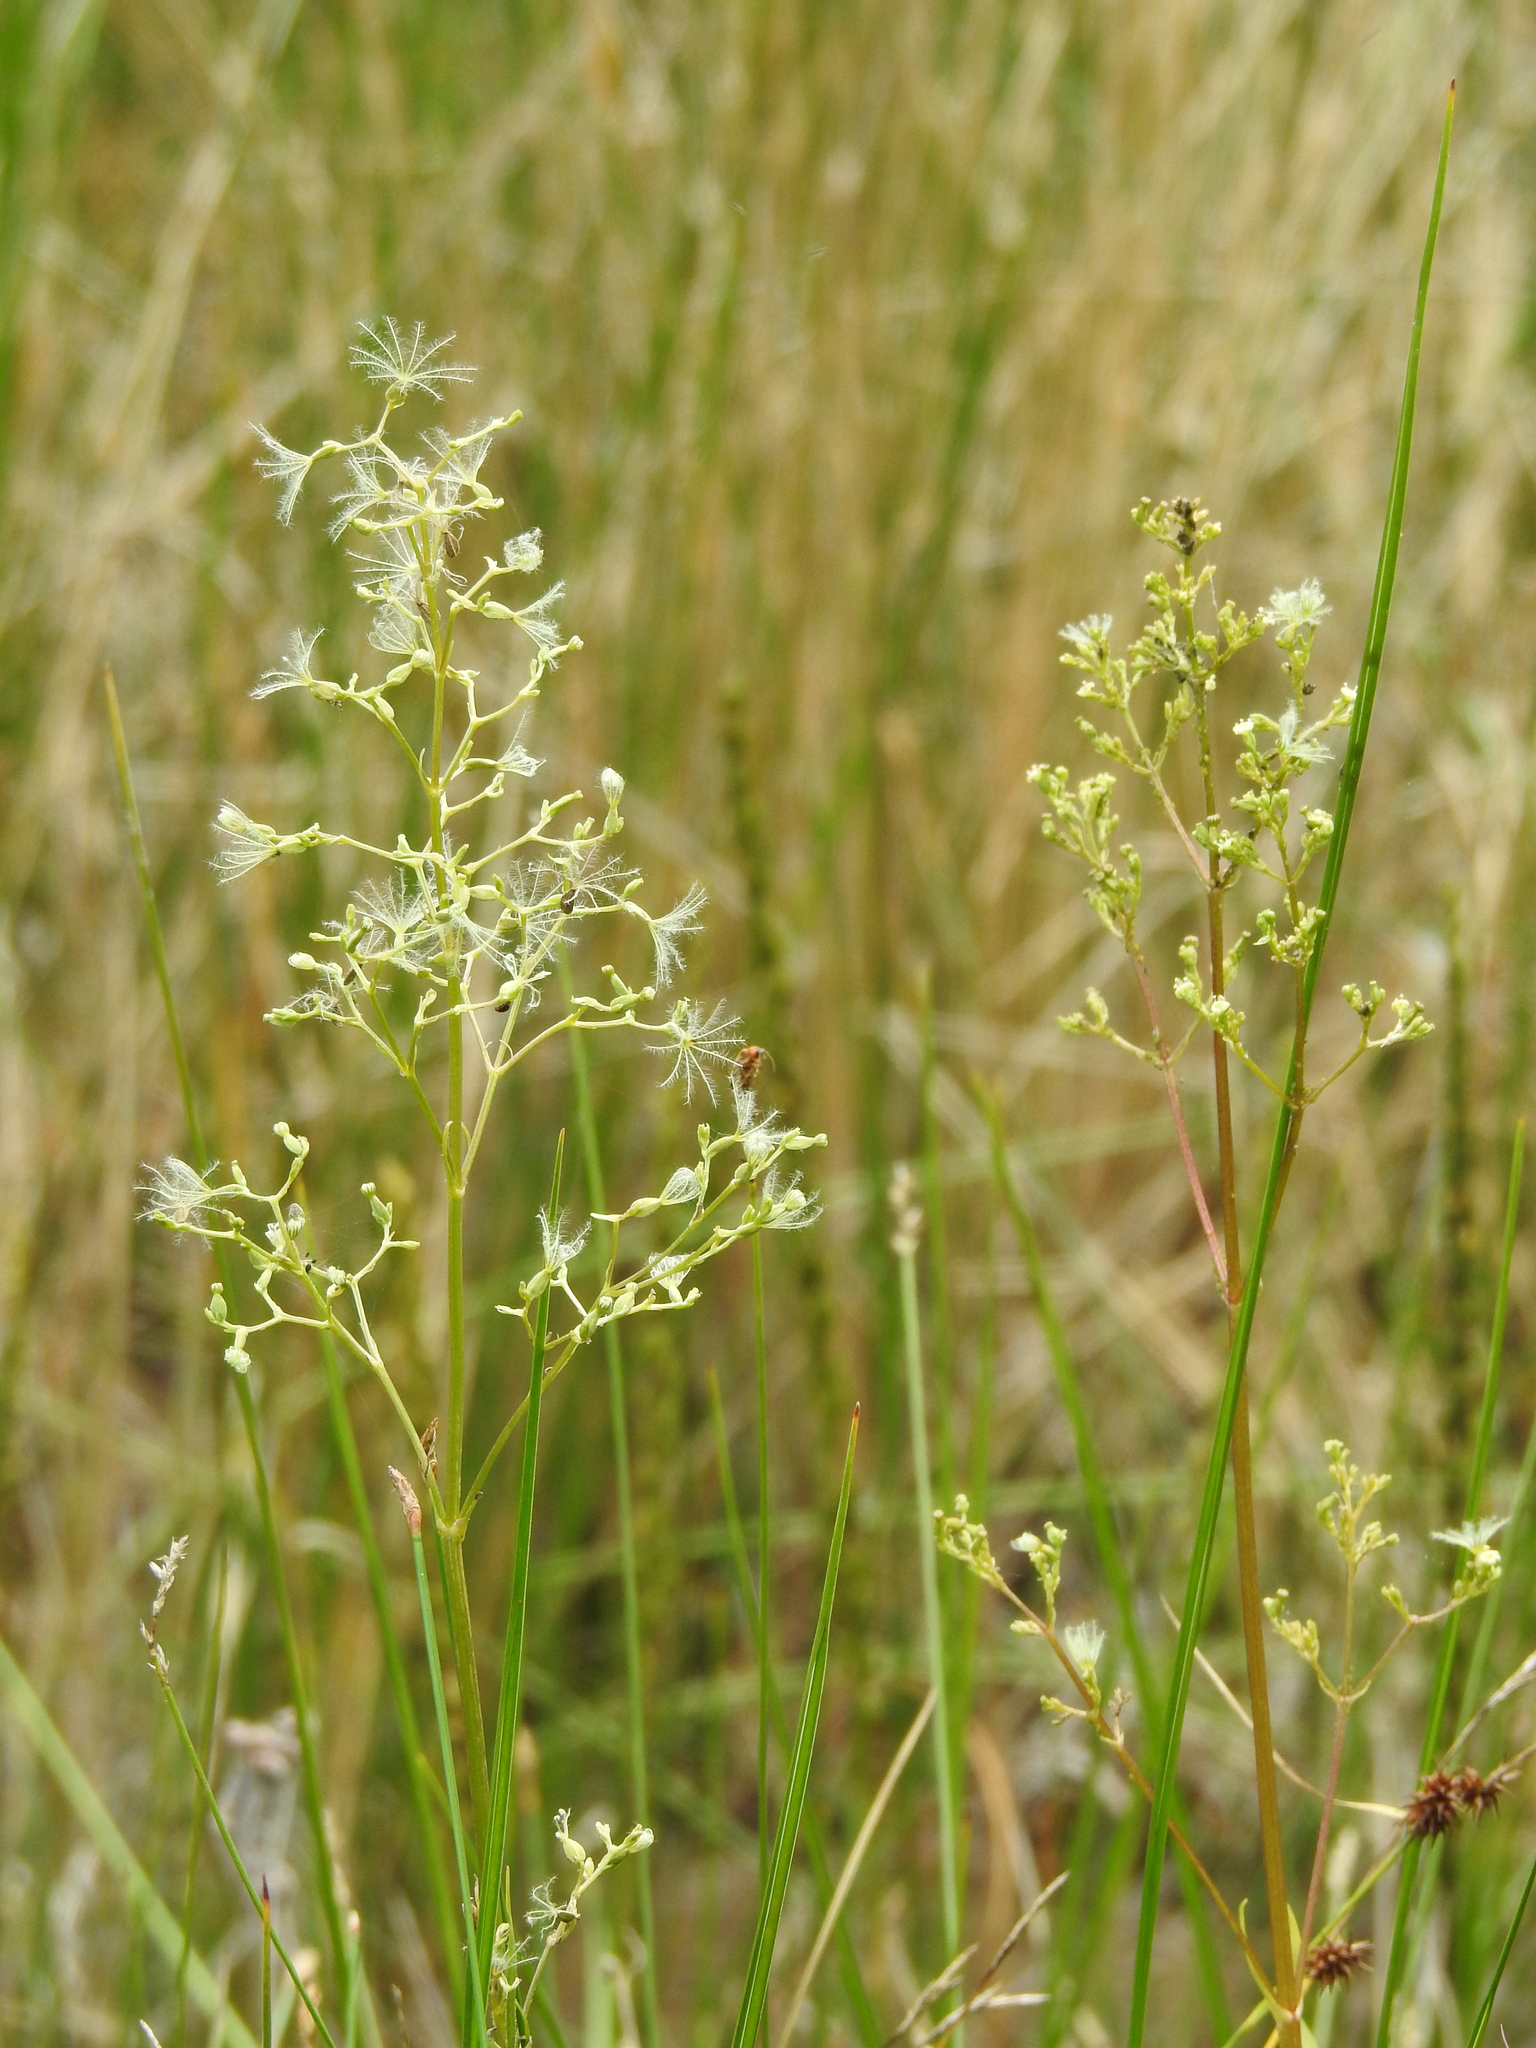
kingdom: Plantae
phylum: Tracheophyta
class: Magnoliopsida
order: Dipsacales
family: Caprifoliaceae
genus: Valeriana
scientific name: Valeriana edulis
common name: Taproot valerian
